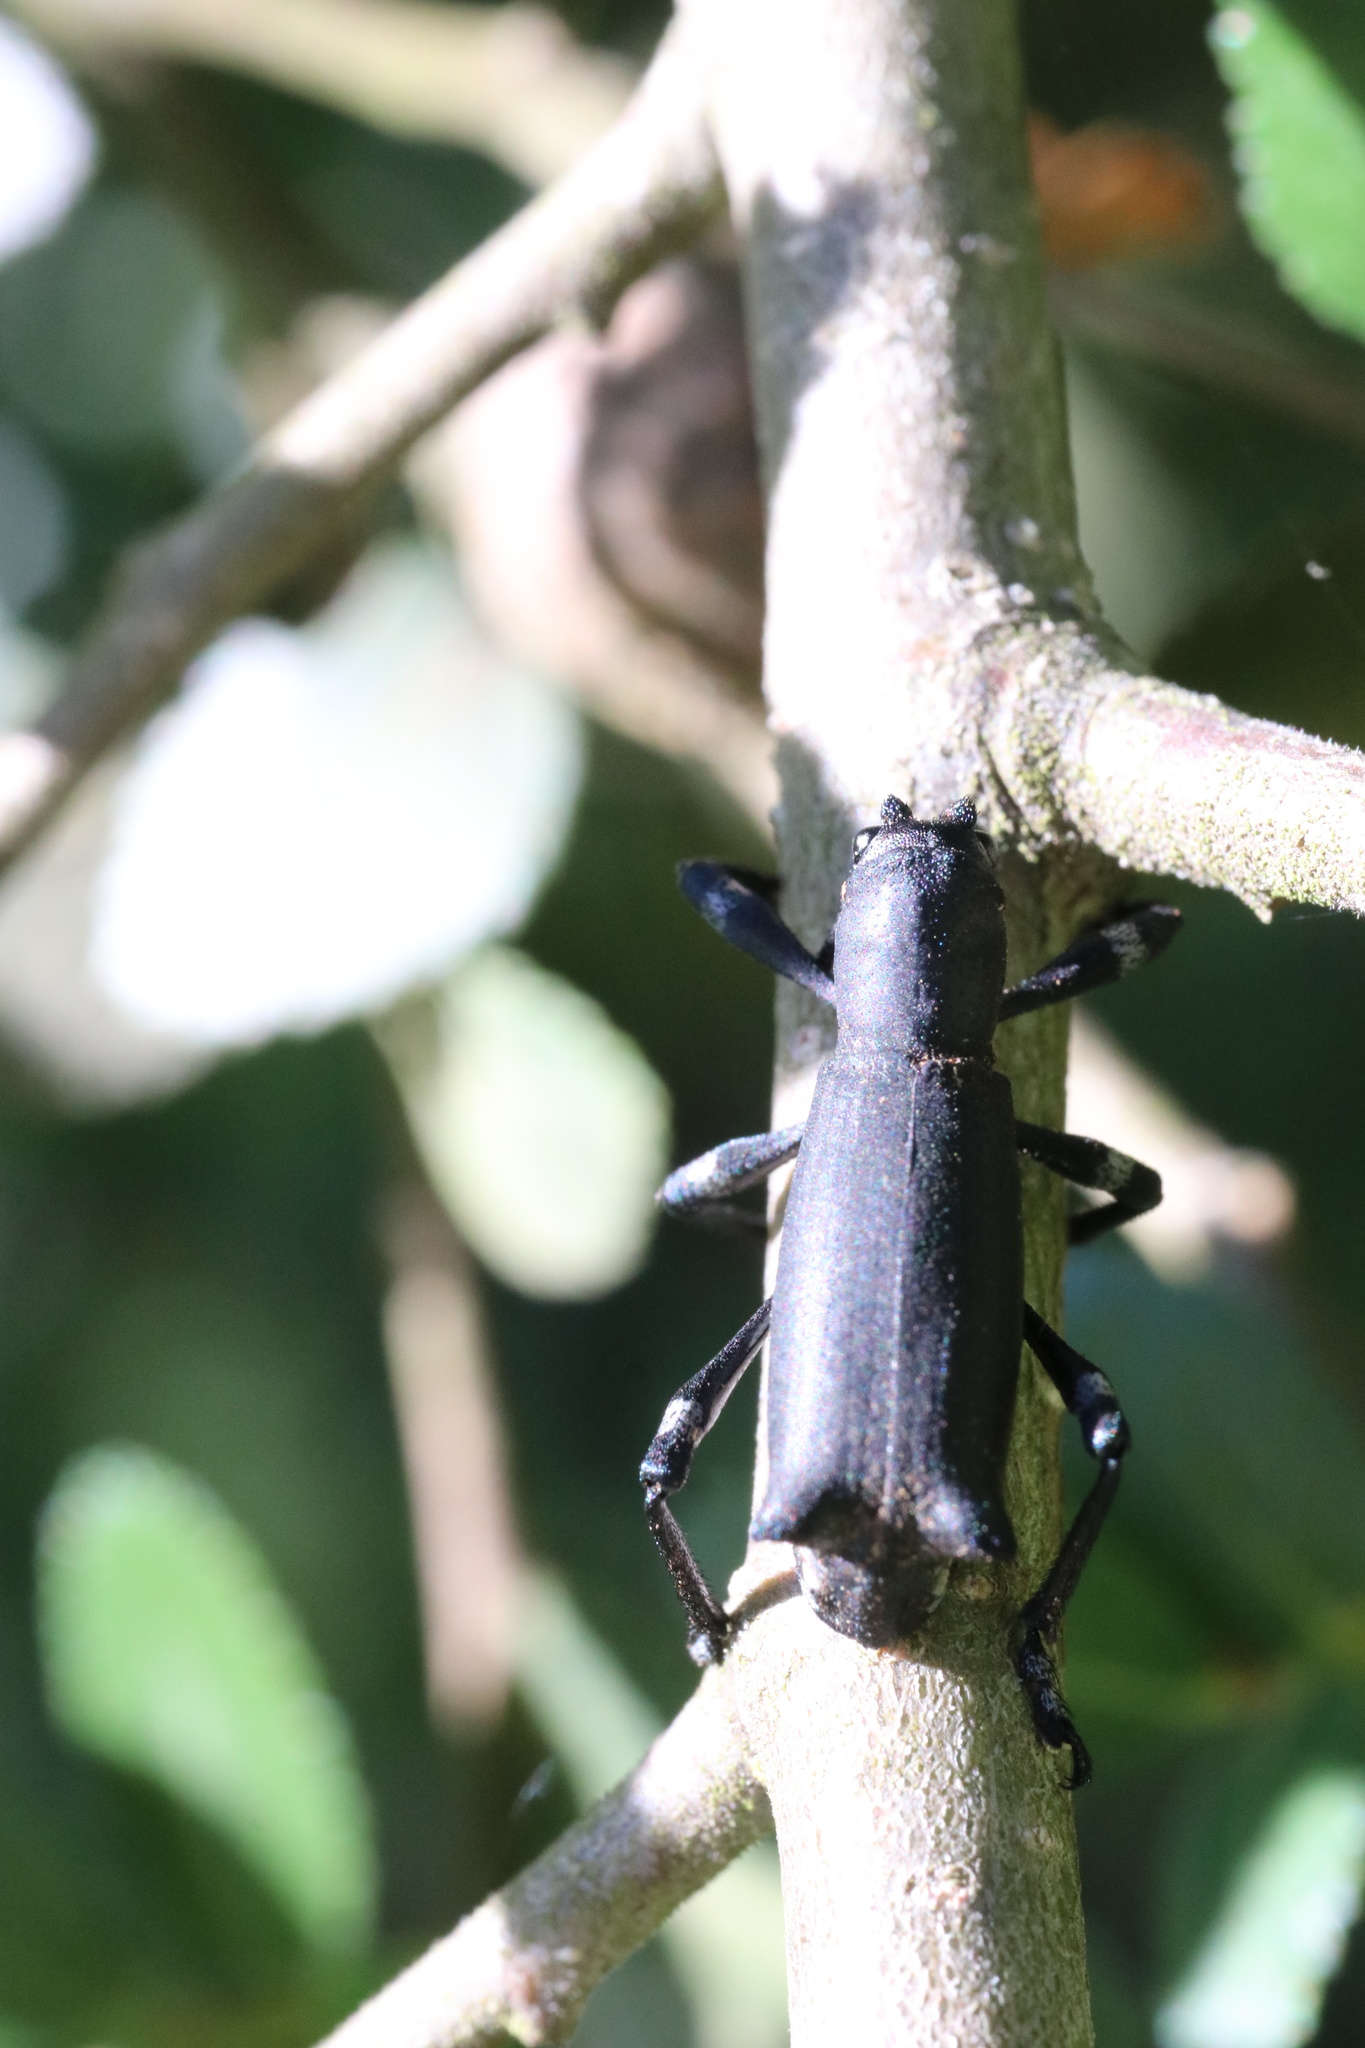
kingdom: Animalia
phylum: Arthropoda
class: Insecta
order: Coleoptera
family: Curculionidae
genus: Aegorhinus
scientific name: Aegorhinus
